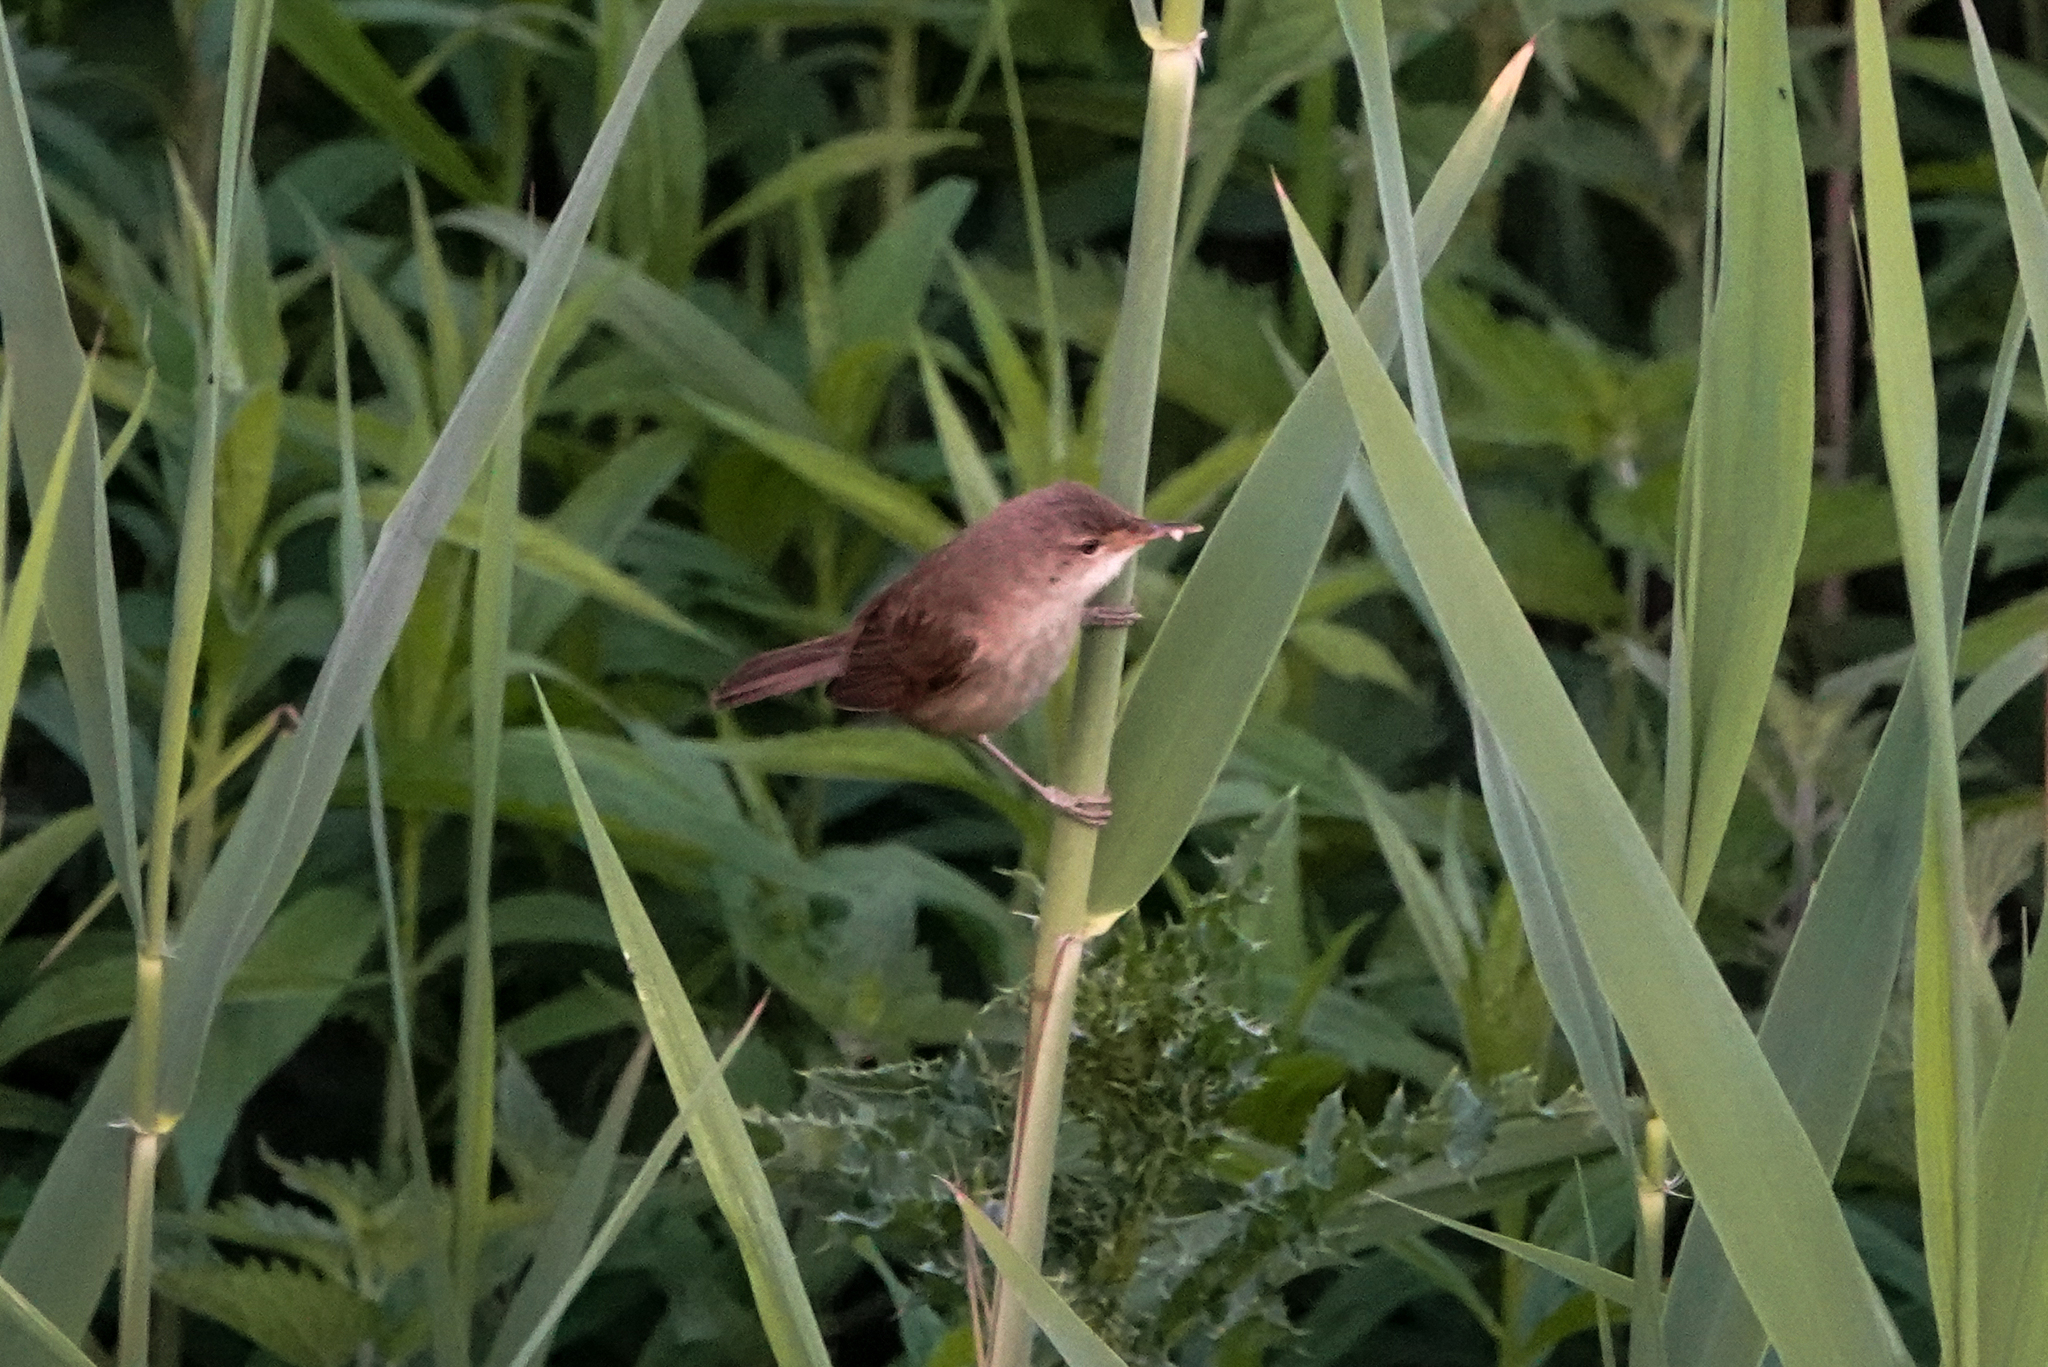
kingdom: Animalia
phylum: Chordata
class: Aves
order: Passeriformes
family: Acrocephalidae
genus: Acrocephalus
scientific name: Acrocephalus scirpaceus
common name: Eurasian reed warbler
